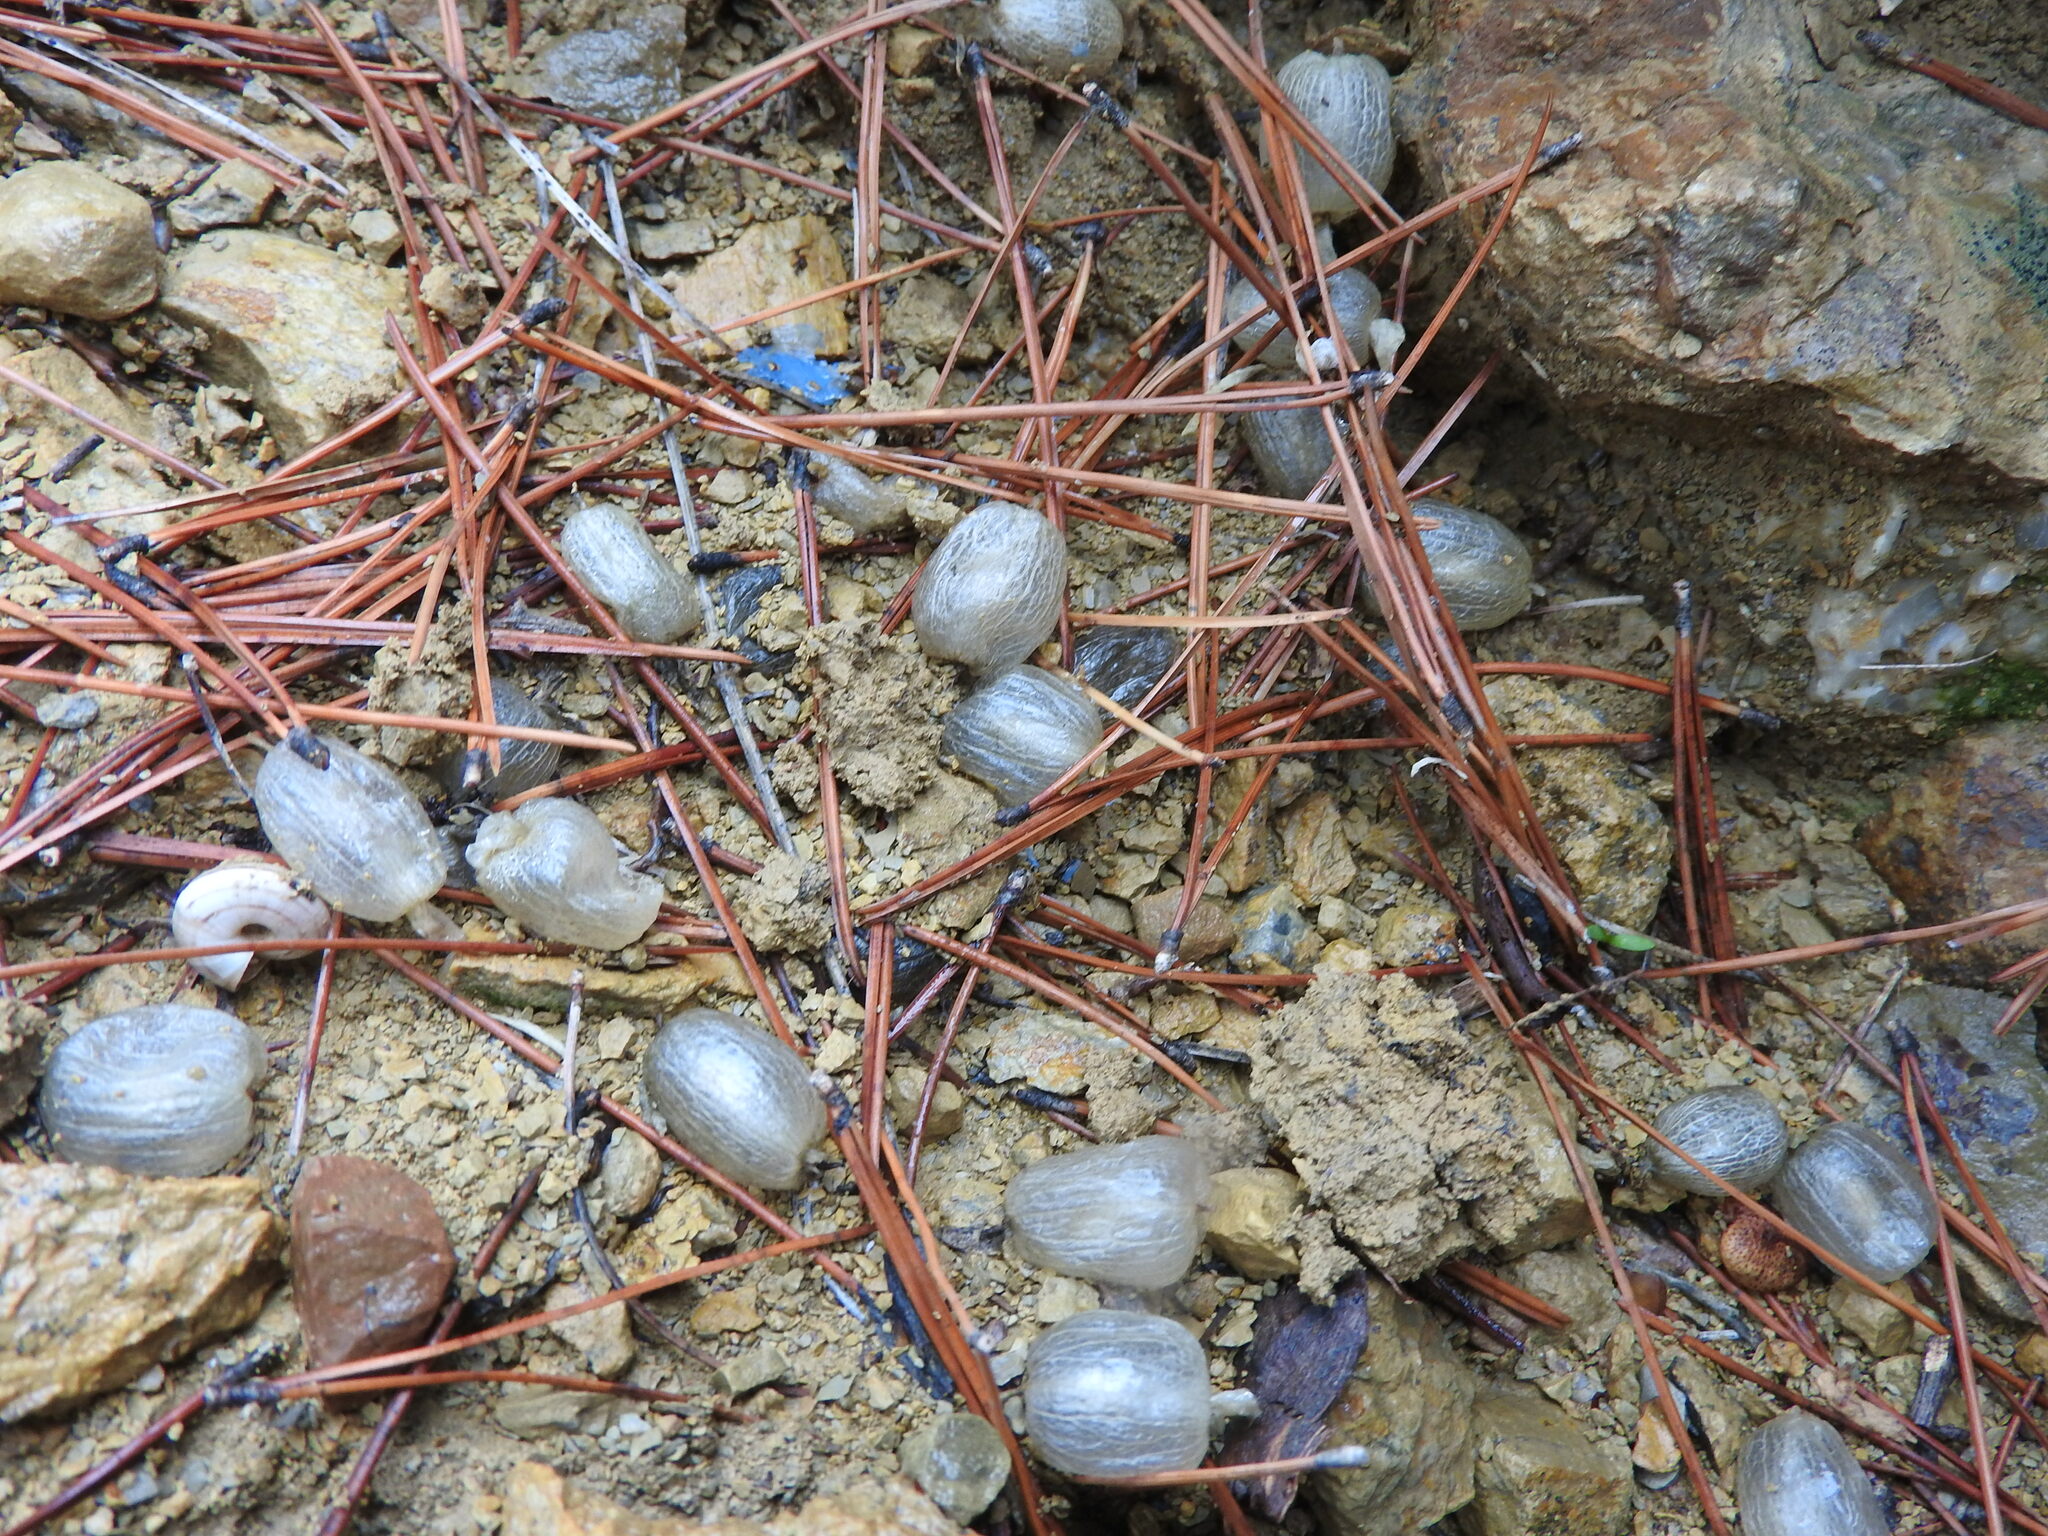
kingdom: Plantae
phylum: Tracheophyta
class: Magnoliopsida
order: Fabales
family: Fabaceae
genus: Astragalus
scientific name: Astragalus armatus
